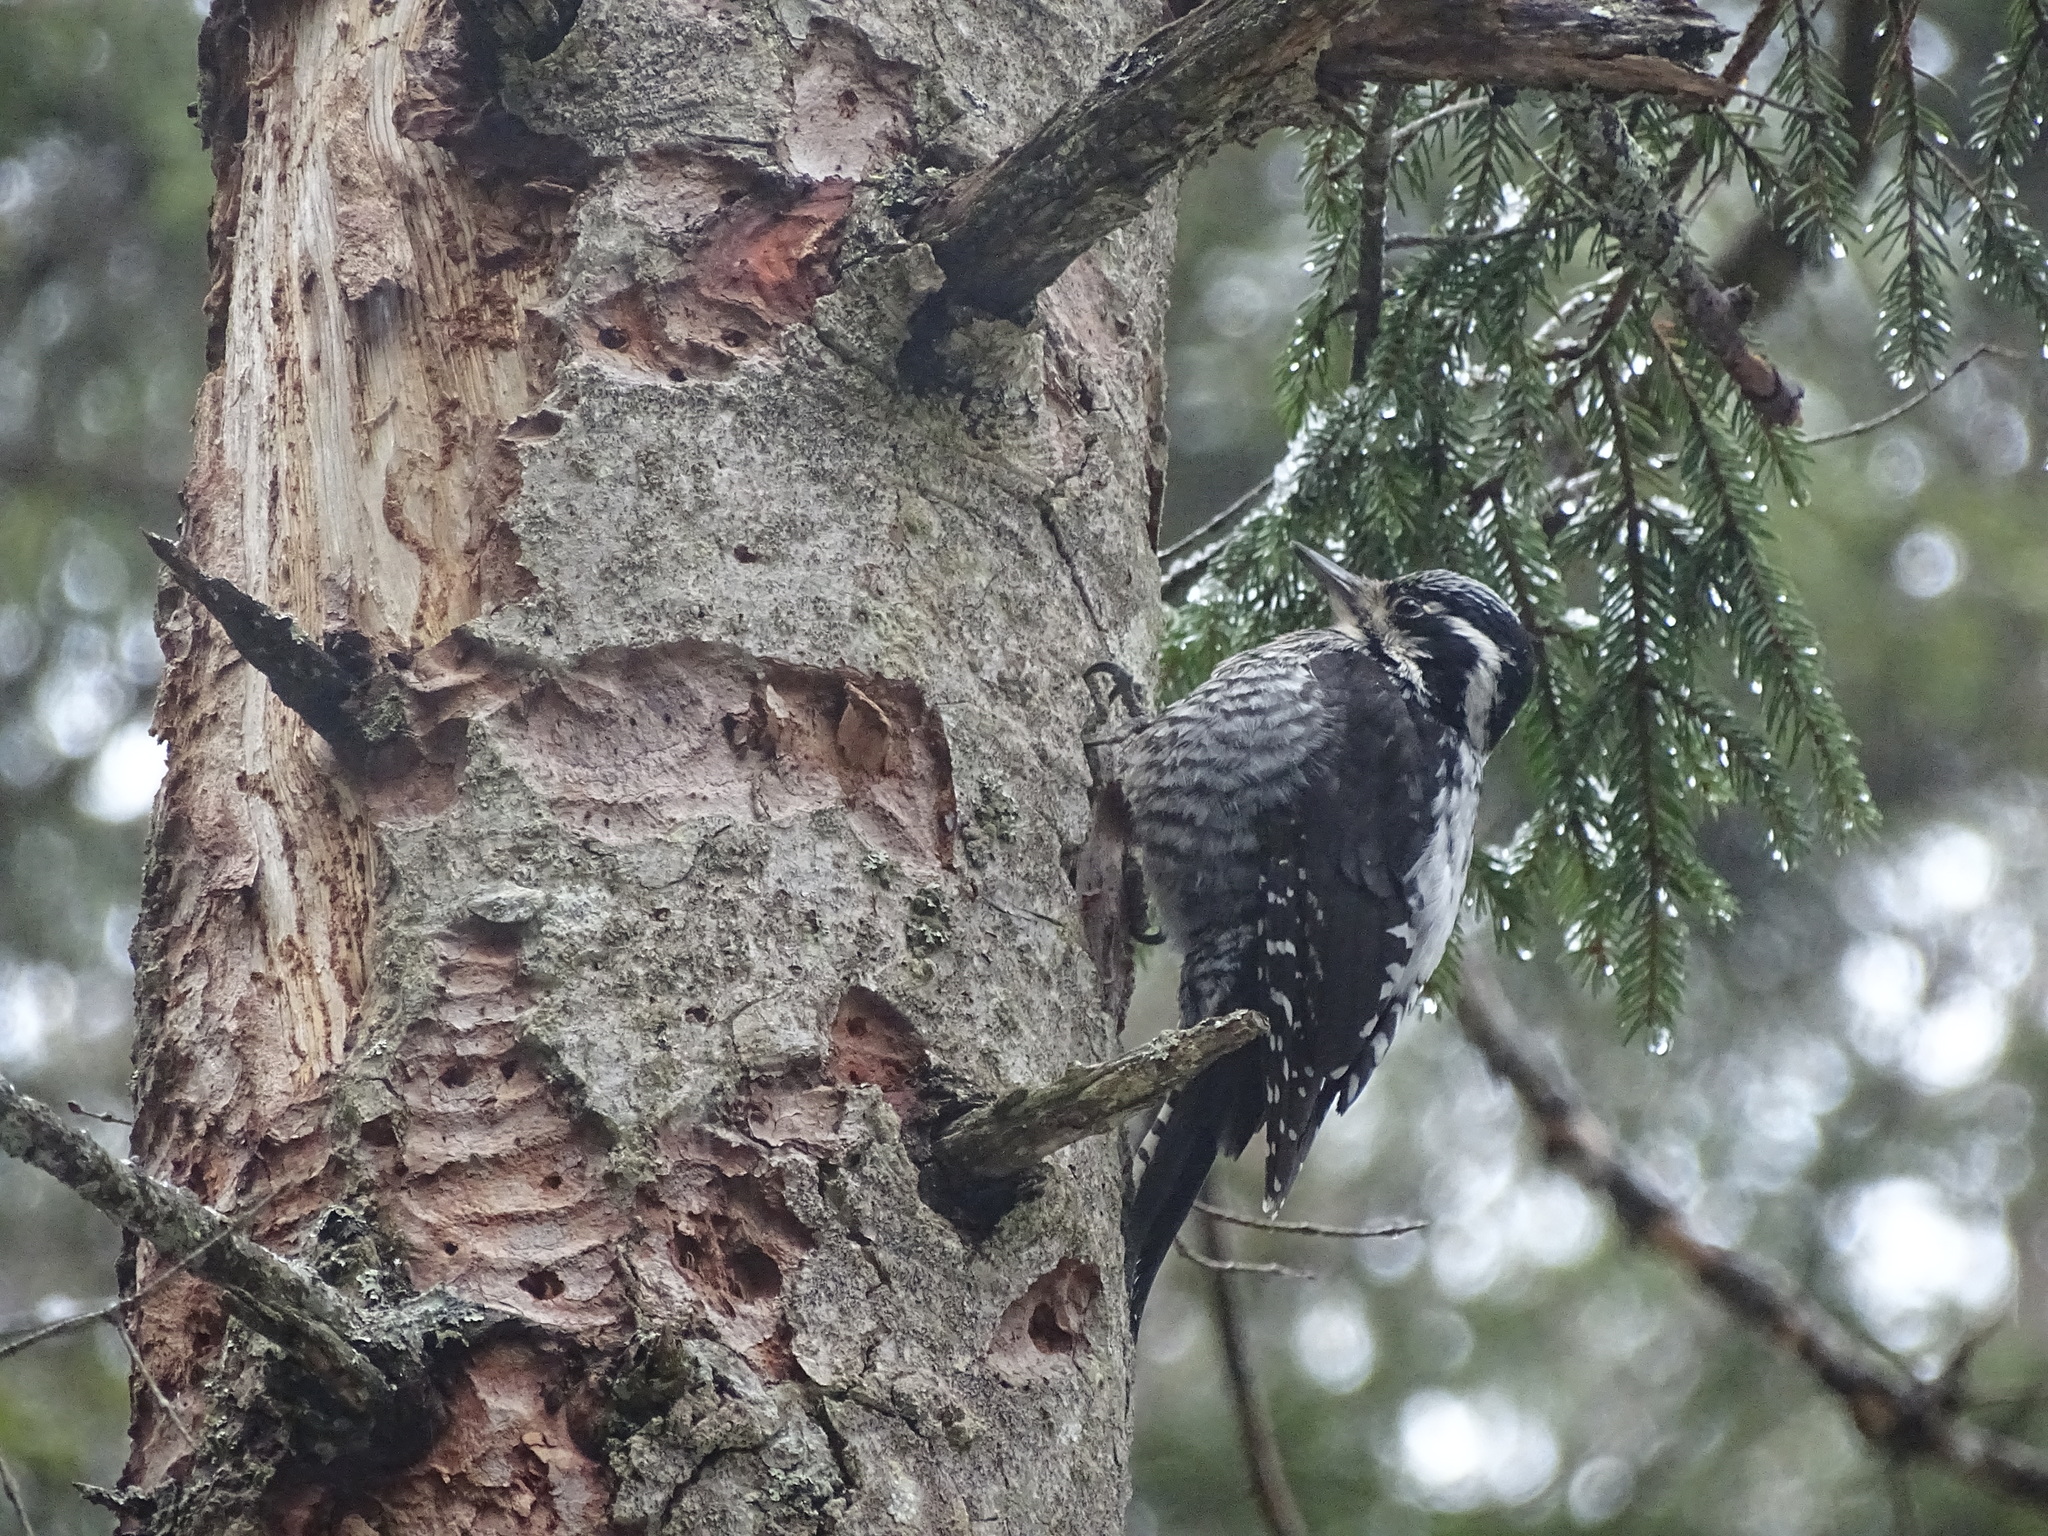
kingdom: Animalia
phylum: Chordata
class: Aves
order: Piciformes
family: Picidae
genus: Picoides
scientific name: Picoides tridactylus
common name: Eurasian three-toed woodpecker
